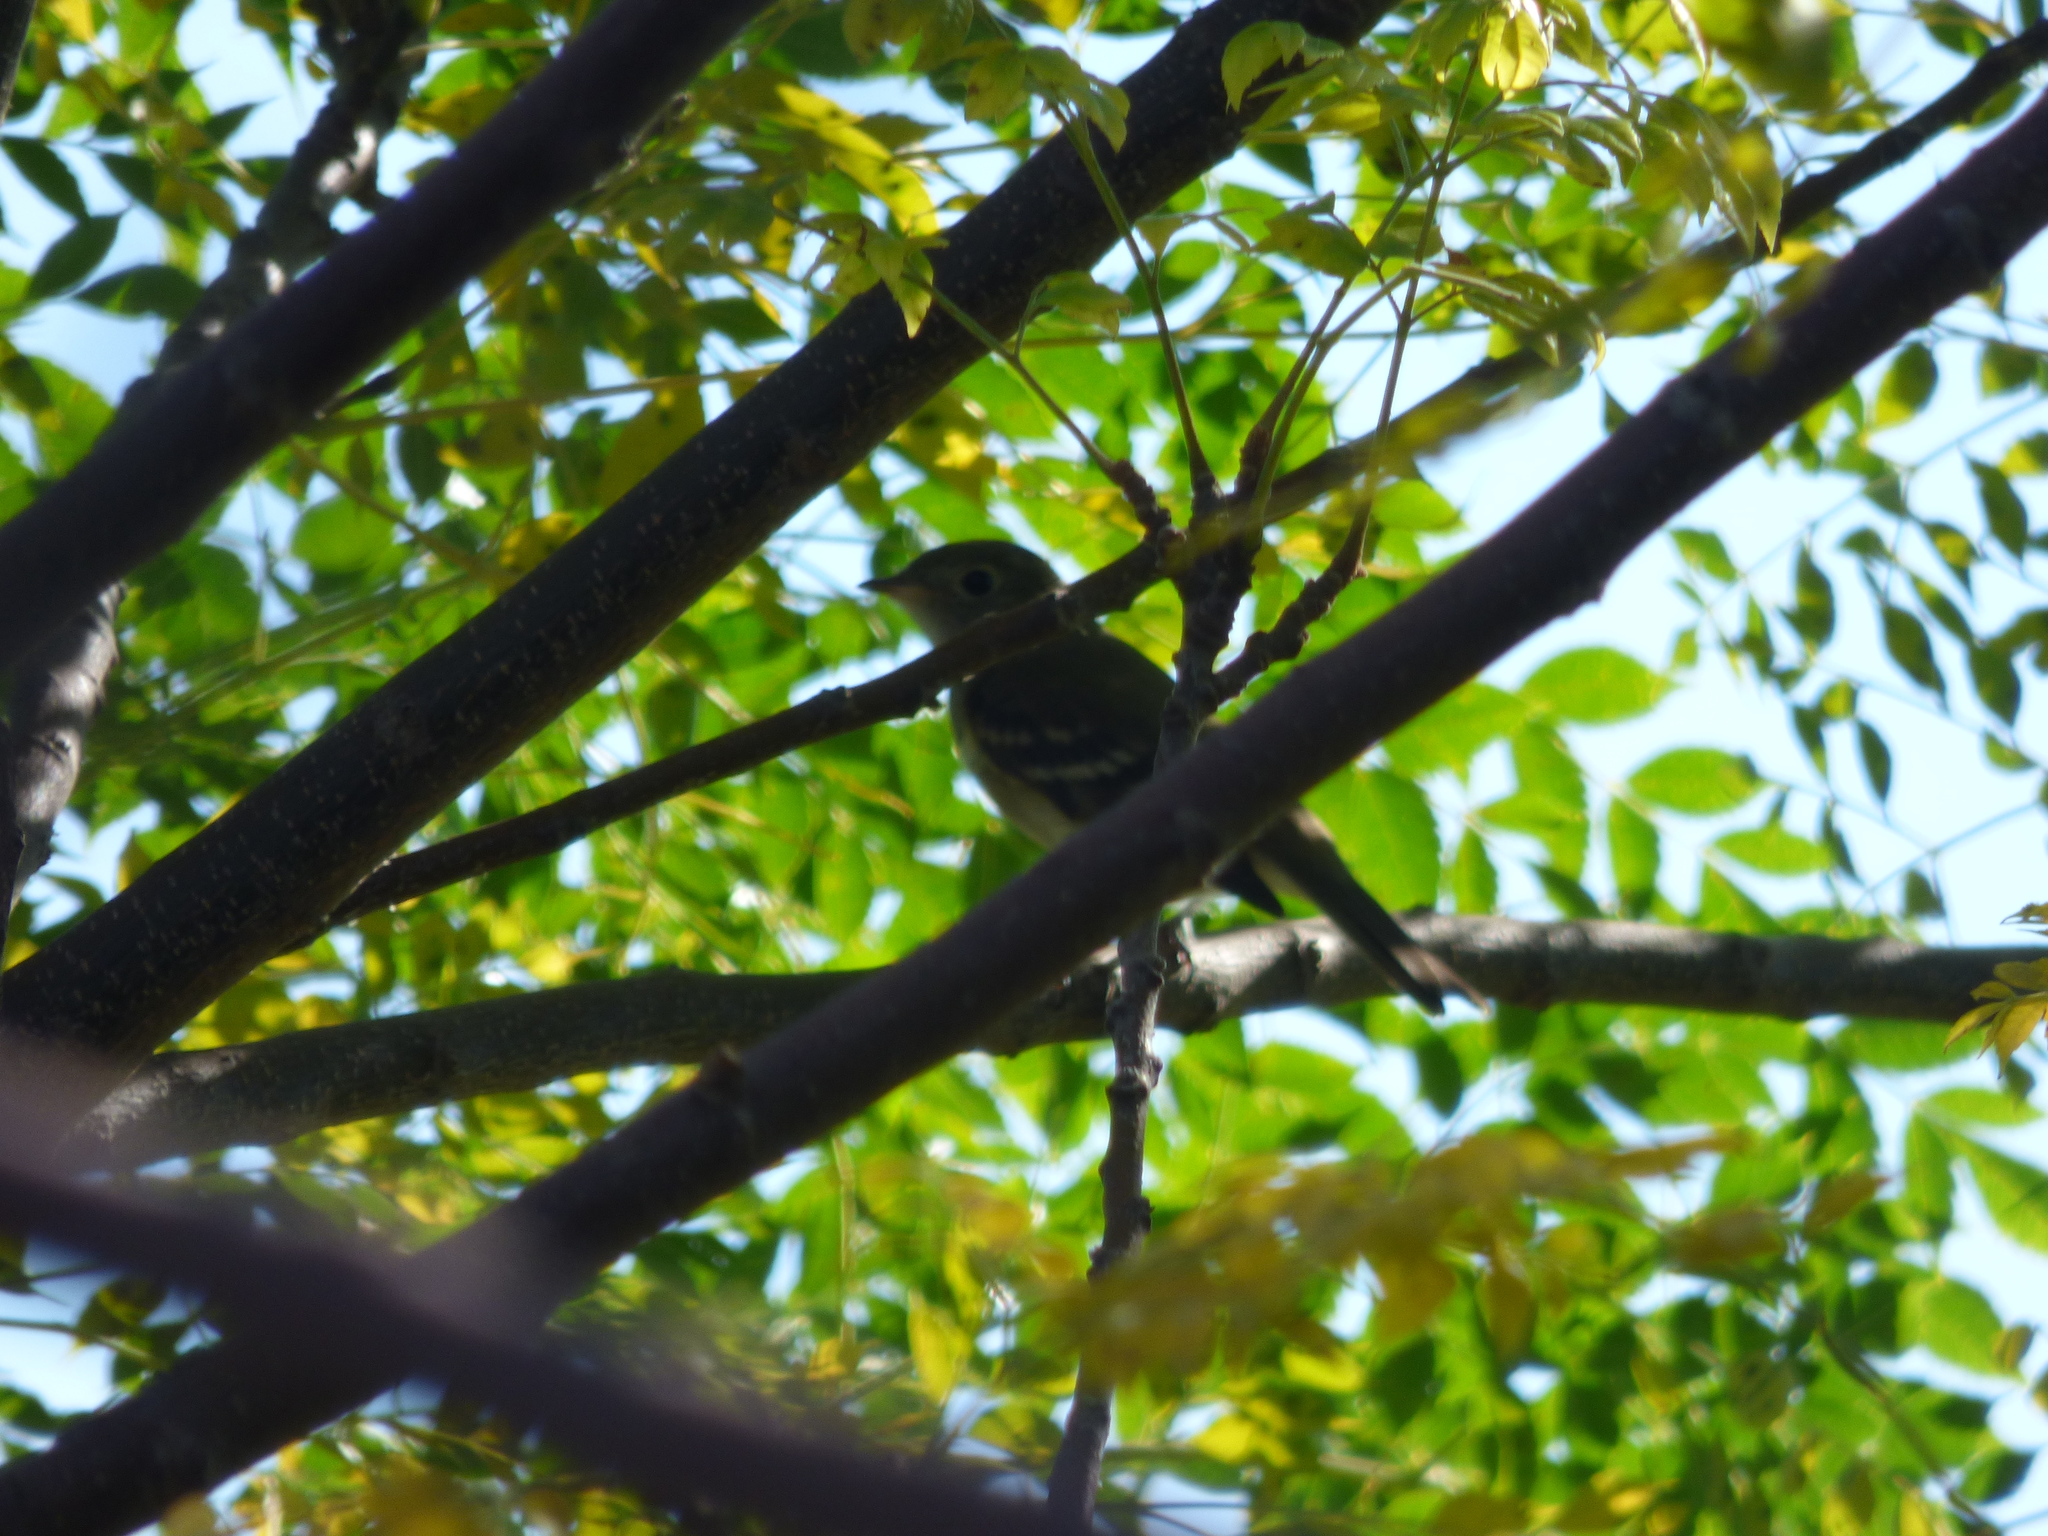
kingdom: Animalia
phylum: Chordata
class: Aves
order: Passeriformes
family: Tyrannidae
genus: Elaenia
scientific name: Elaenia parvirostris
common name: Small-billed elaenia
